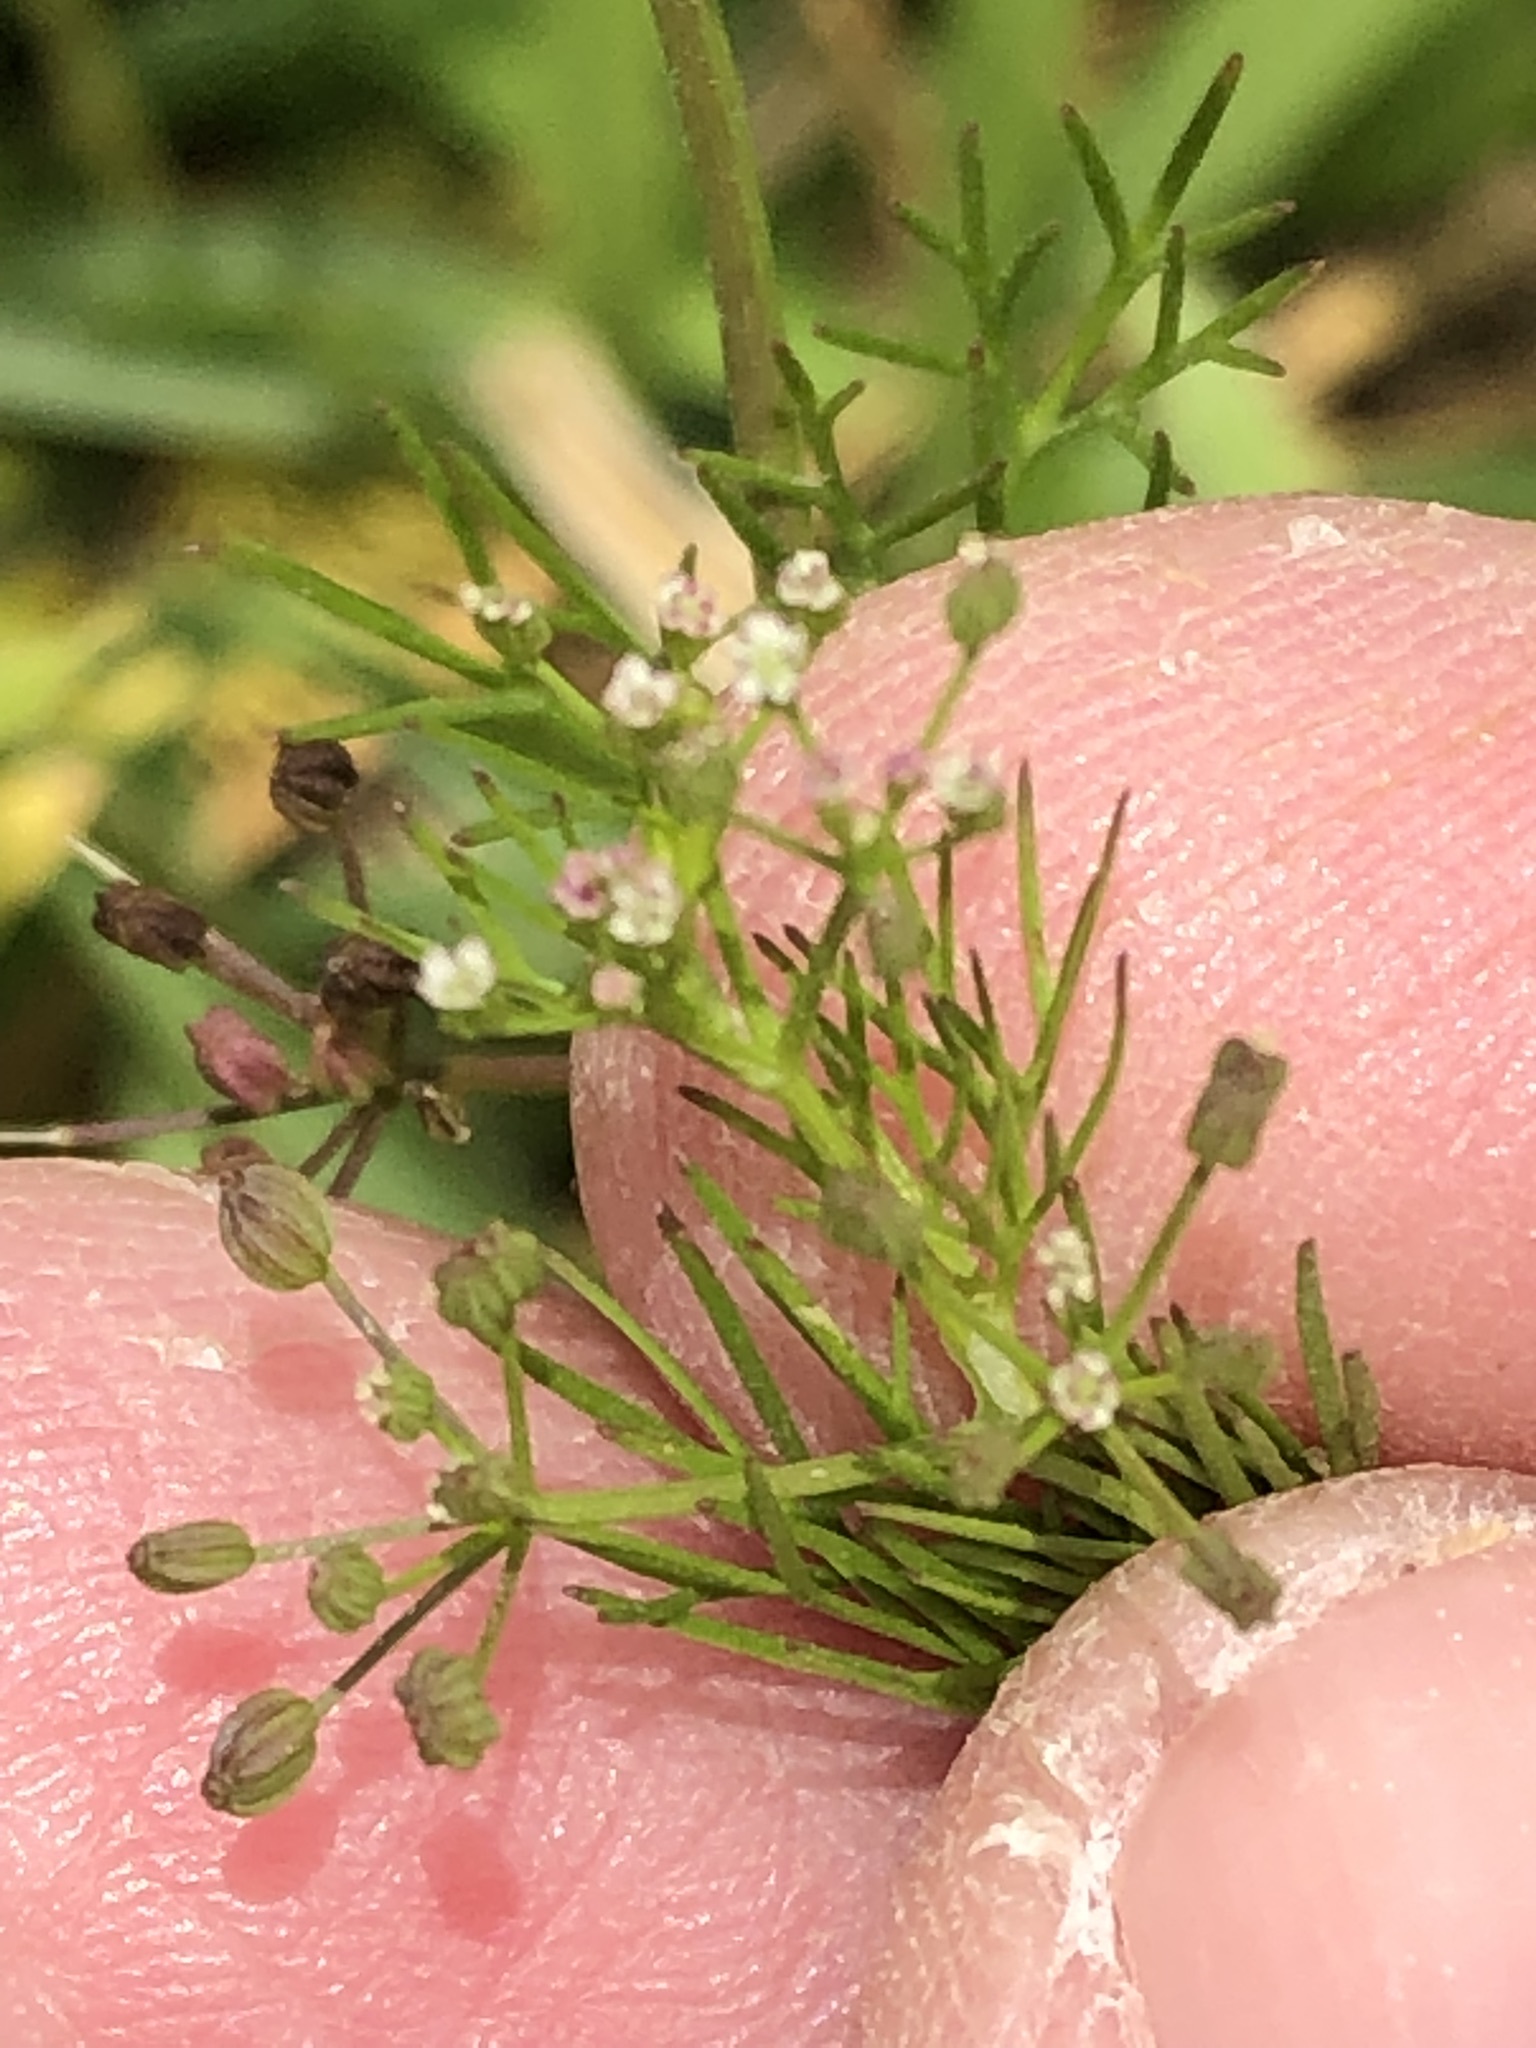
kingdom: Plantae
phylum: Tracheophyta
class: Magnoliopsida
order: Apiales
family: Apiaceae
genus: Cyclospermum
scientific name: Cyclospermum leptophyllum
